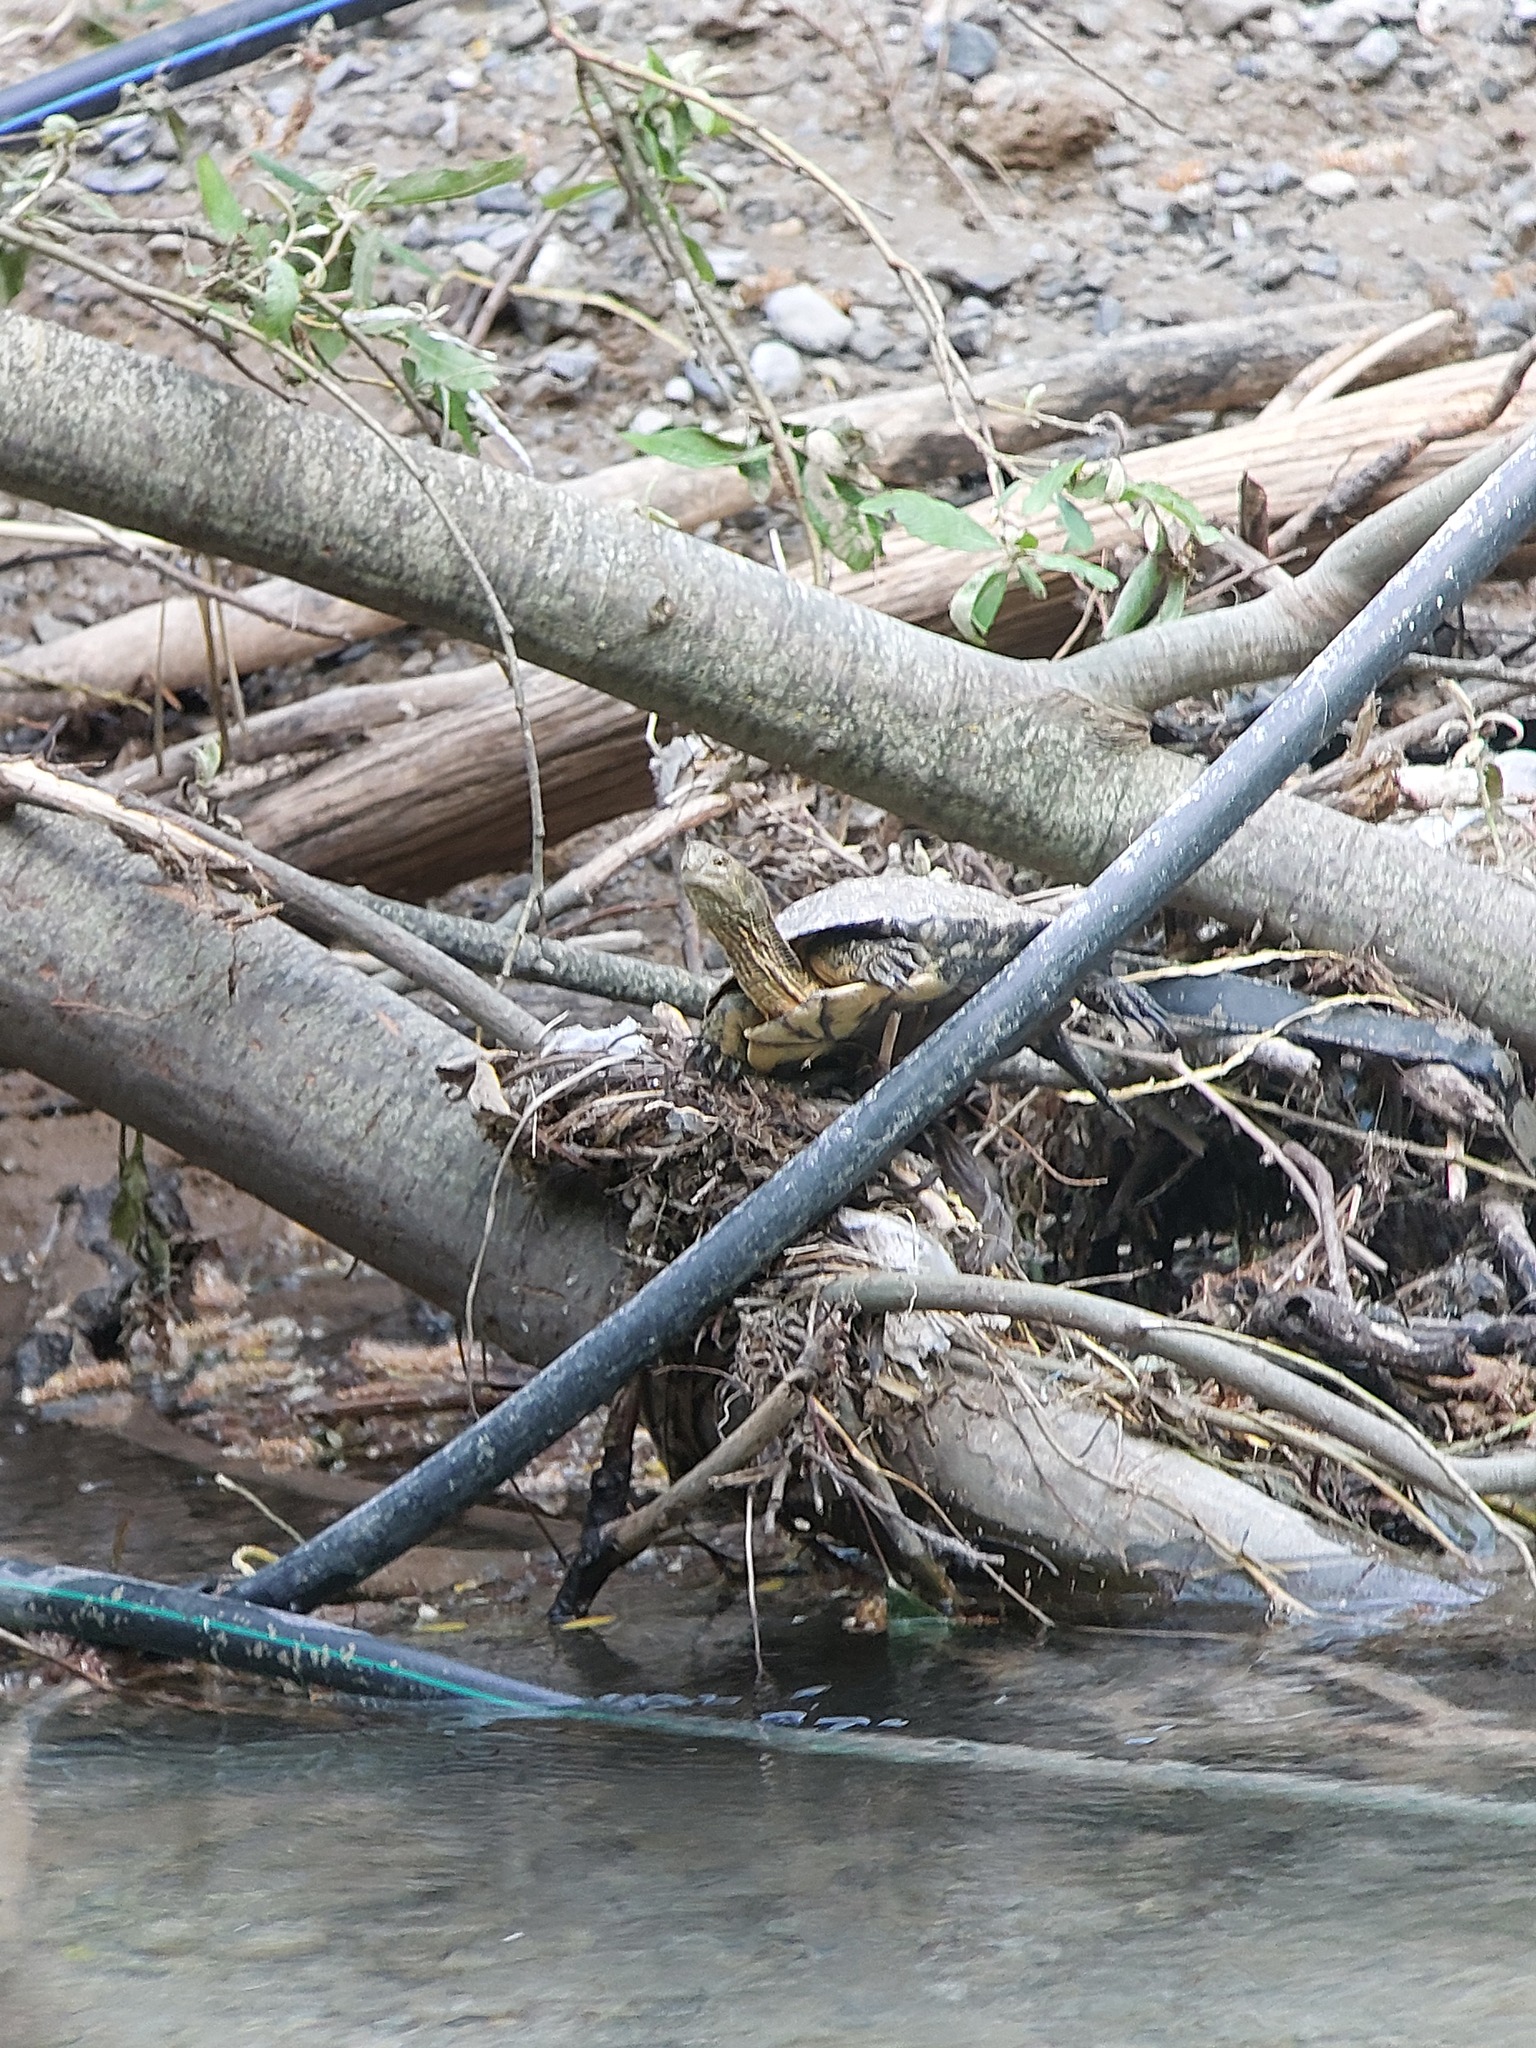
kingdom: Animalia
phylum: Chordata
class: Testudines
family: Geoemydidae
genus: Mauremys
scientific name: Mauremys leprosa
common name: Mediterranean pond turtle
